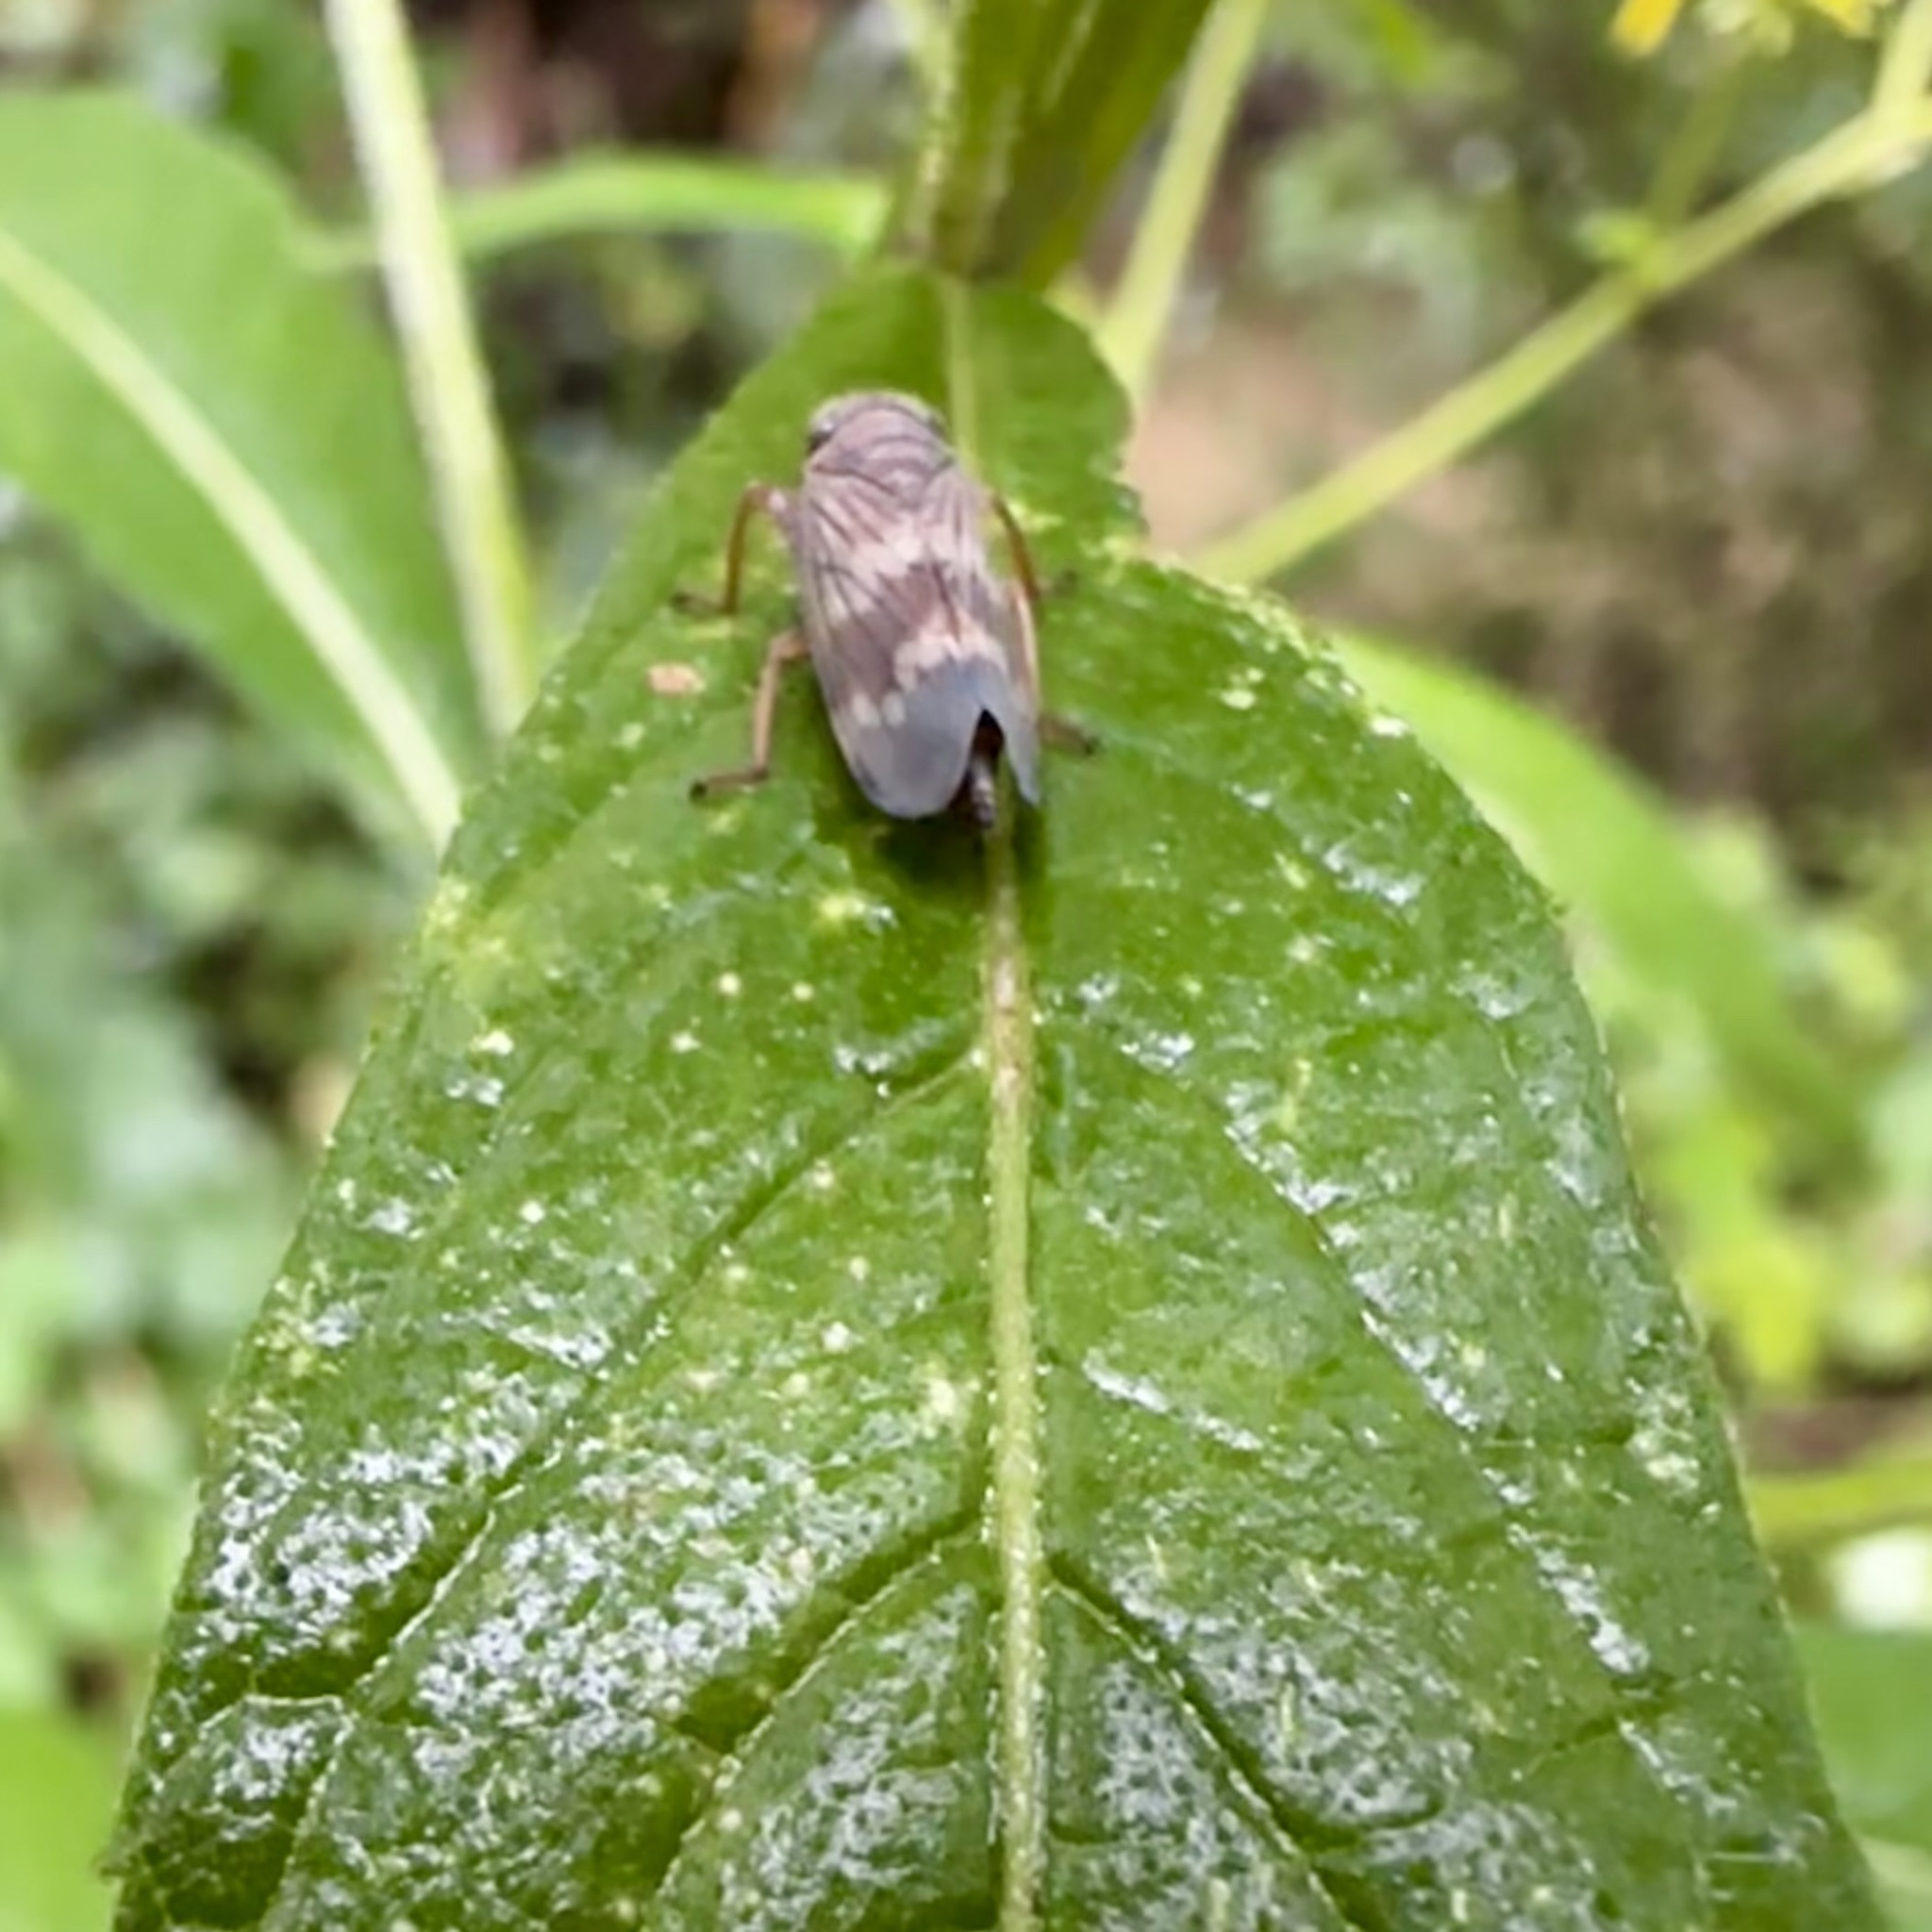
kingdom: Animalia
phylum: Arthropoda
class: Insecta
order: Hemiptera
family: Cicadellidae
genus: Jikradia
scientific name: Jikradia olitoria
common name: Coppery leafhopper
